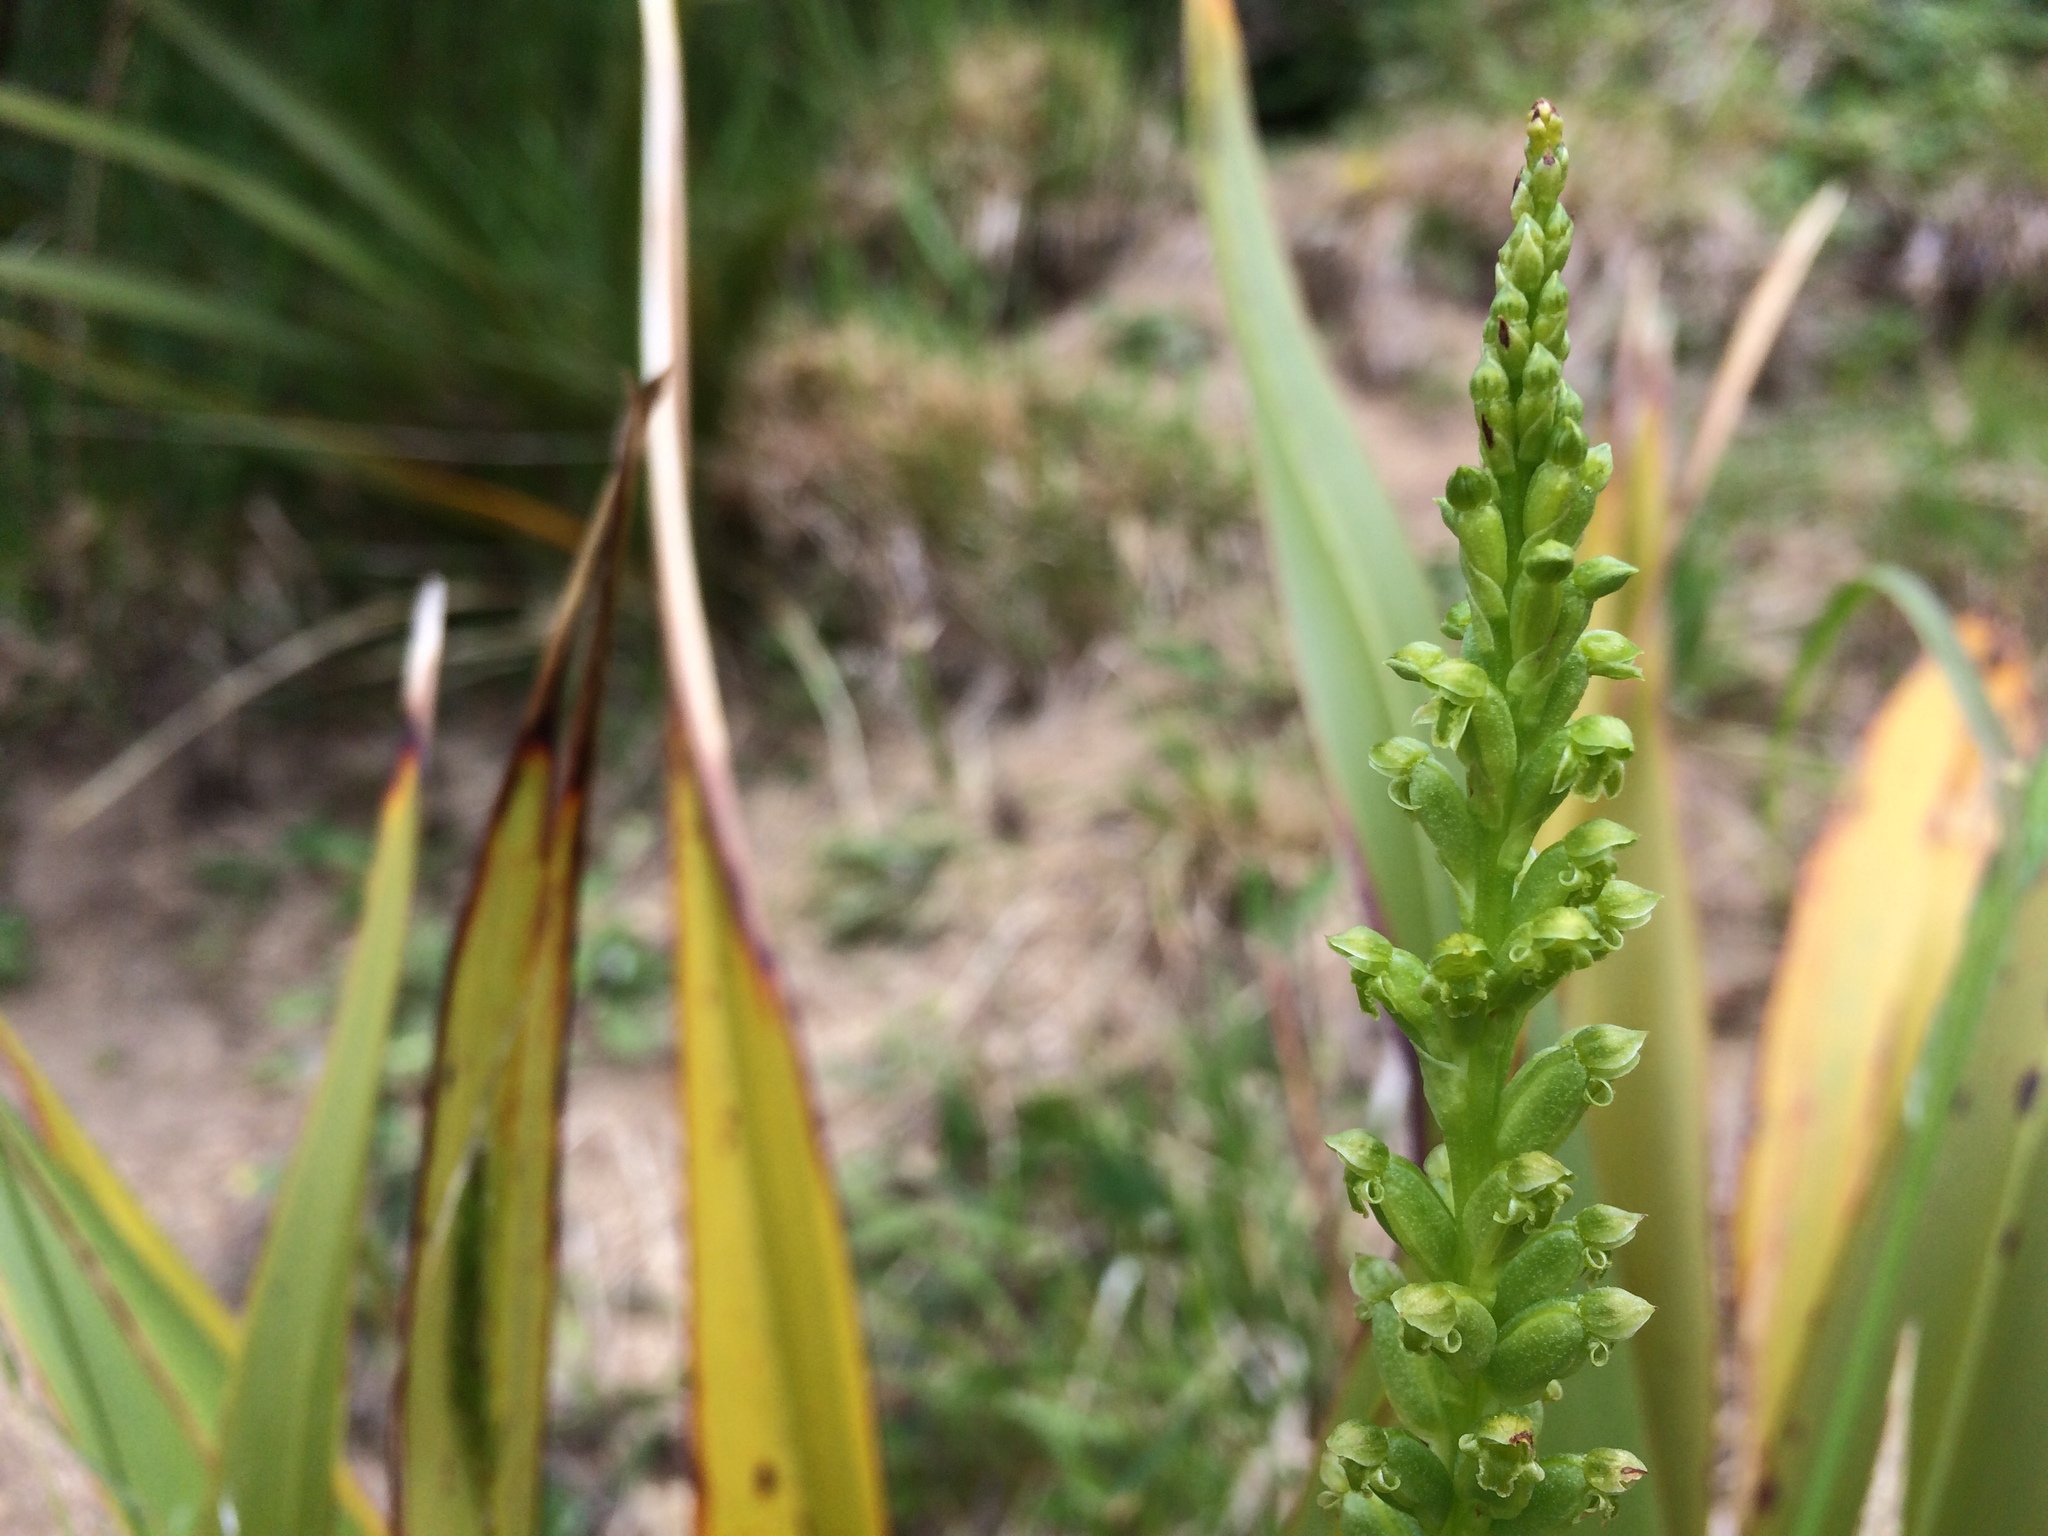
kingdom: Plantae
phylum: Tracheophyta
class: Liliopsida
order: Asparagales
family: Orchidaceae
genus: Microtis
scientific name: Microtis unifolia
